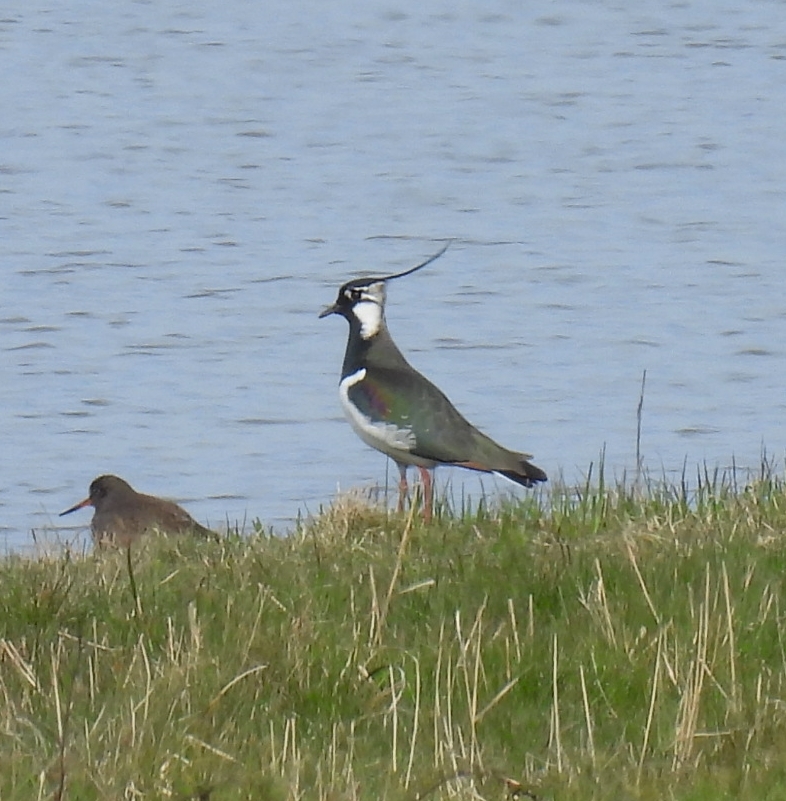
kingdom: Animalia
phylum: Chordata
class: Aves
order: Charadriiformes
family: Charadriidae
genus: Vanellus
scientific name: Vanellus vanellus
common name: Northern lapwing
